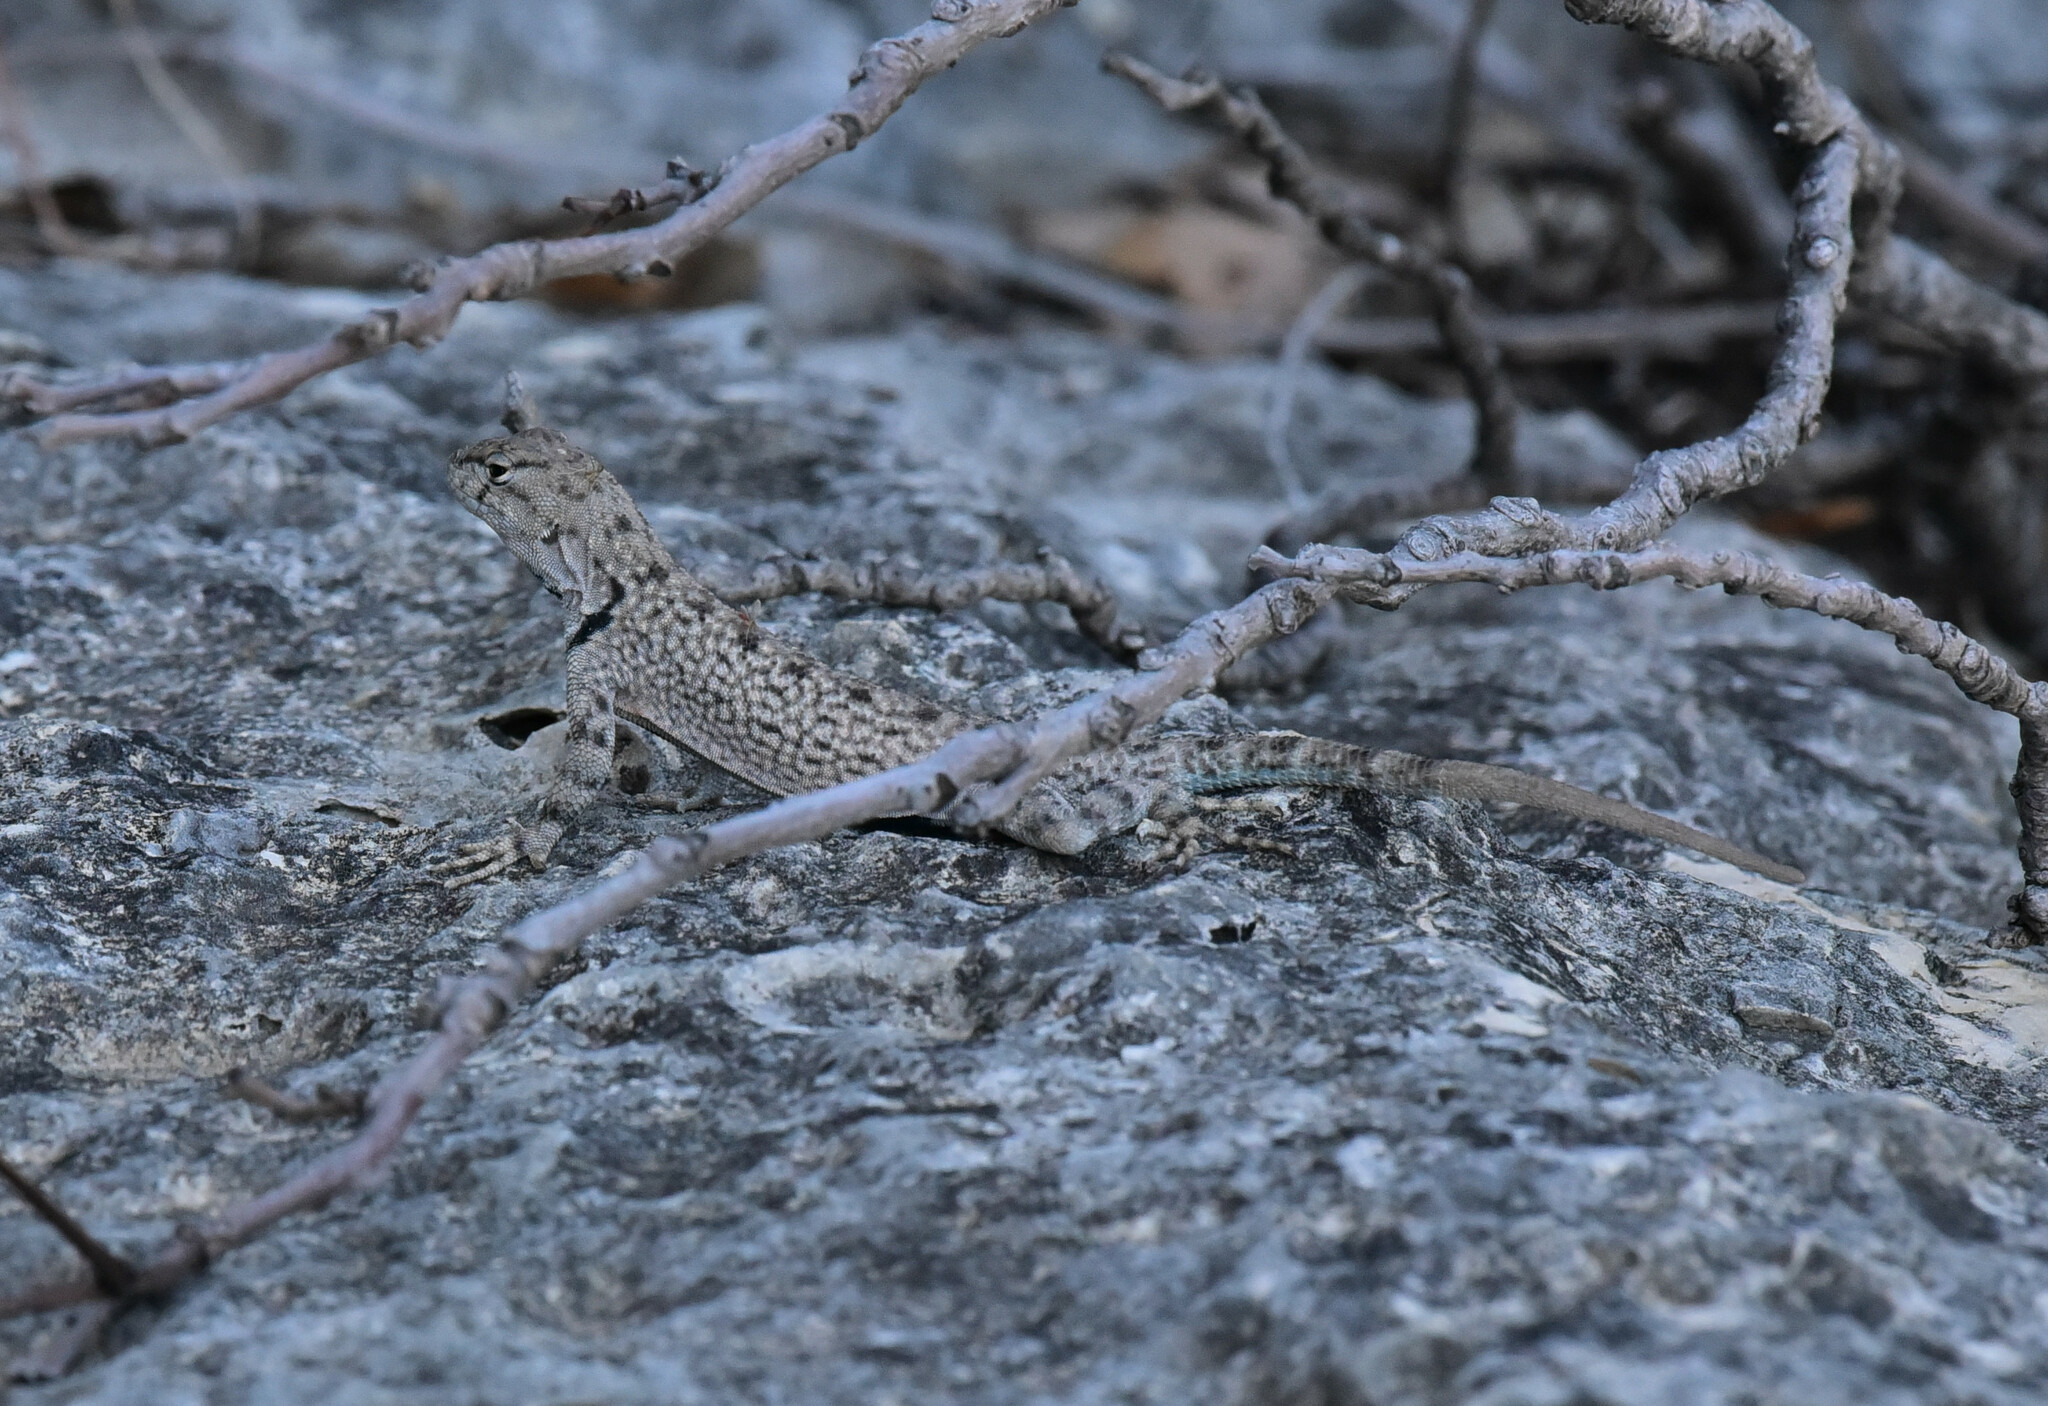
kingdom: Animalia
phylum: Chordata
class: Squamata
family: Phrynosomatidae
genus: Sceloporus
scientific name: Sceloporus merriami
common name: Canyon lizard
